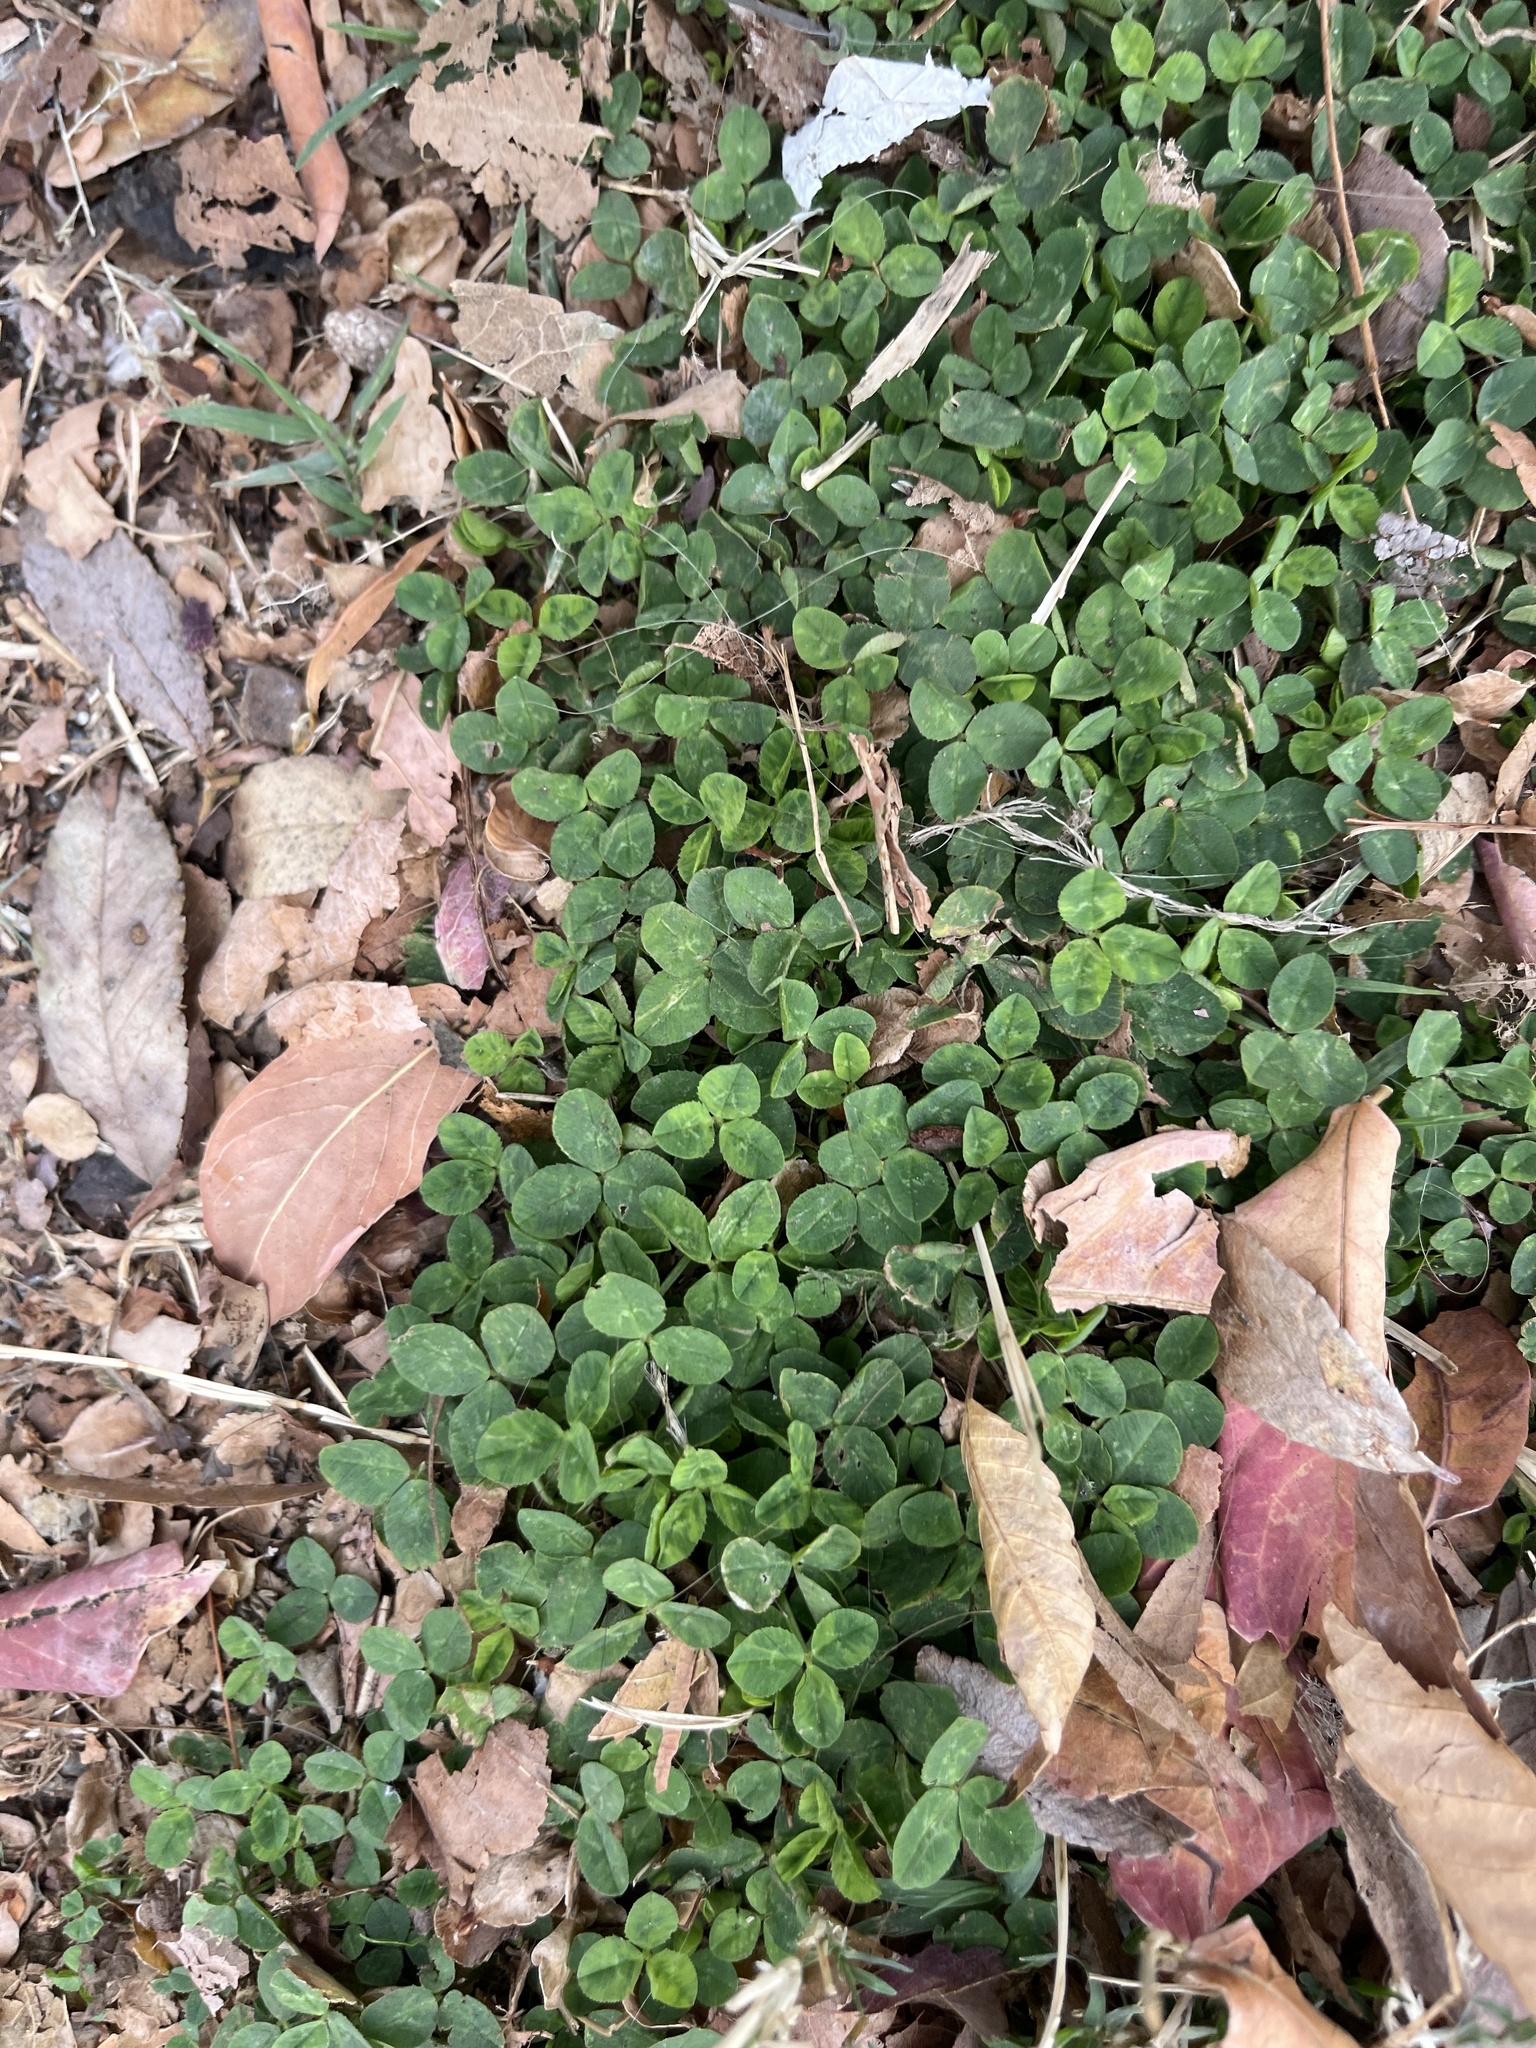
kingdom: Plantae
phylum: Tracheophyta
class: Magnoliopsida
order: Fabales
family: Fabaceae
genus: Trifolium
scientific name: Trifolium repens
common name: White clover
